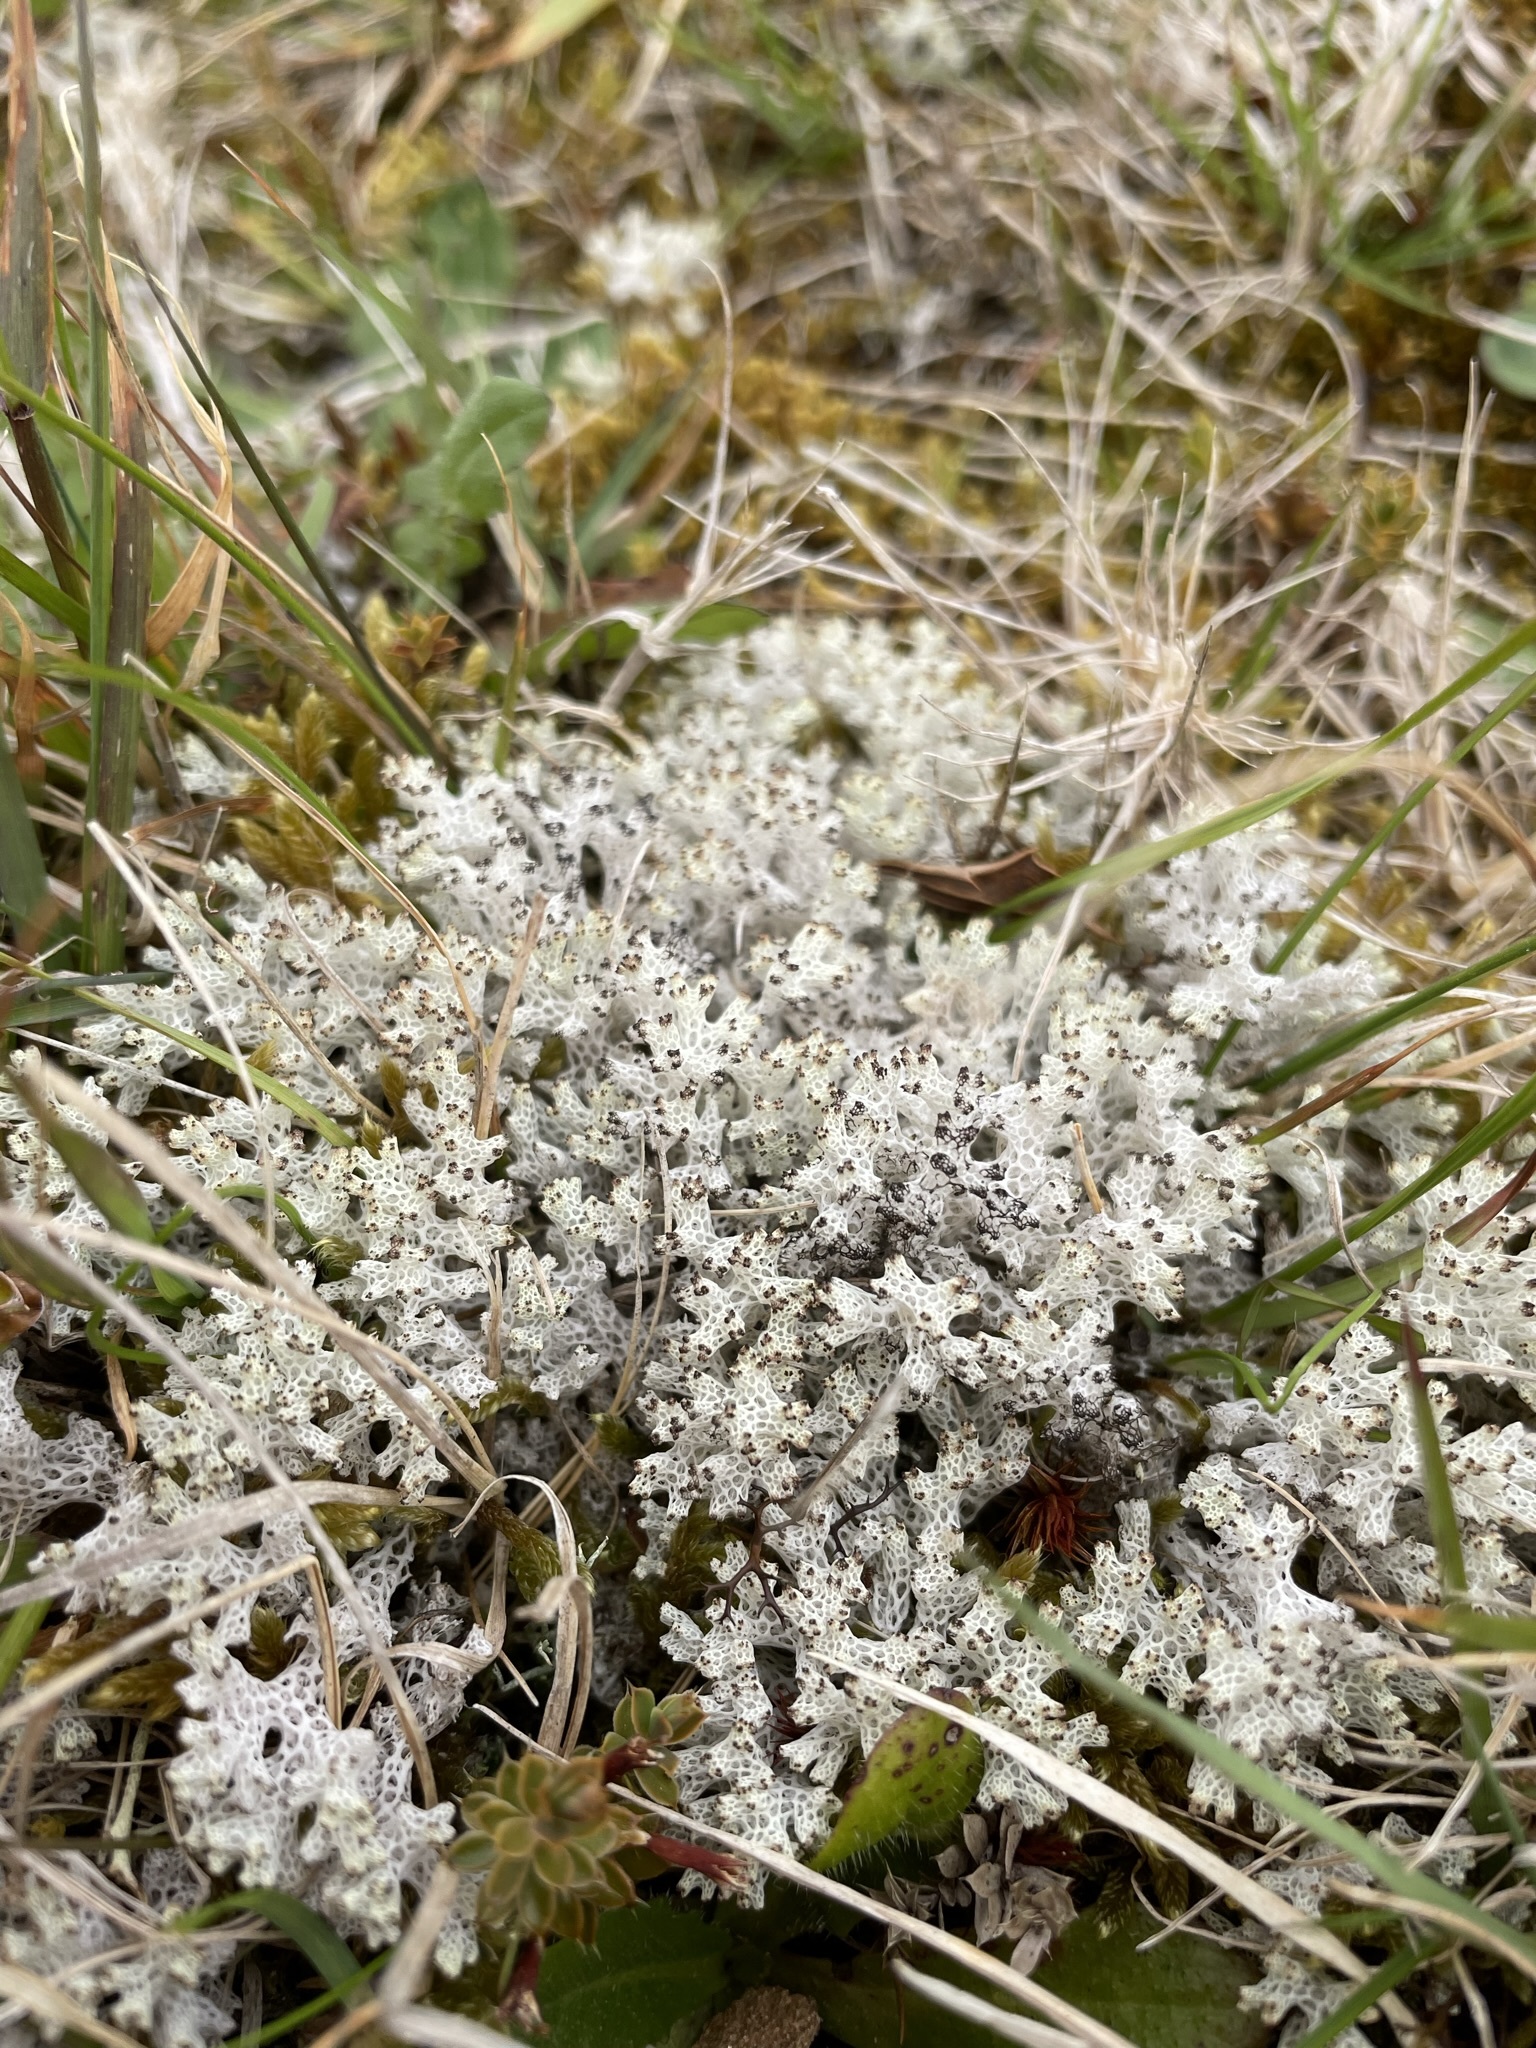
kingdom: Fungi
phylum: Ascomycota
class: Lecanoromycetes
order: Lecanorales
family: Cladoniaceae
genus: Pulchrocladia
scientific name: Pulchrocladia retipora
